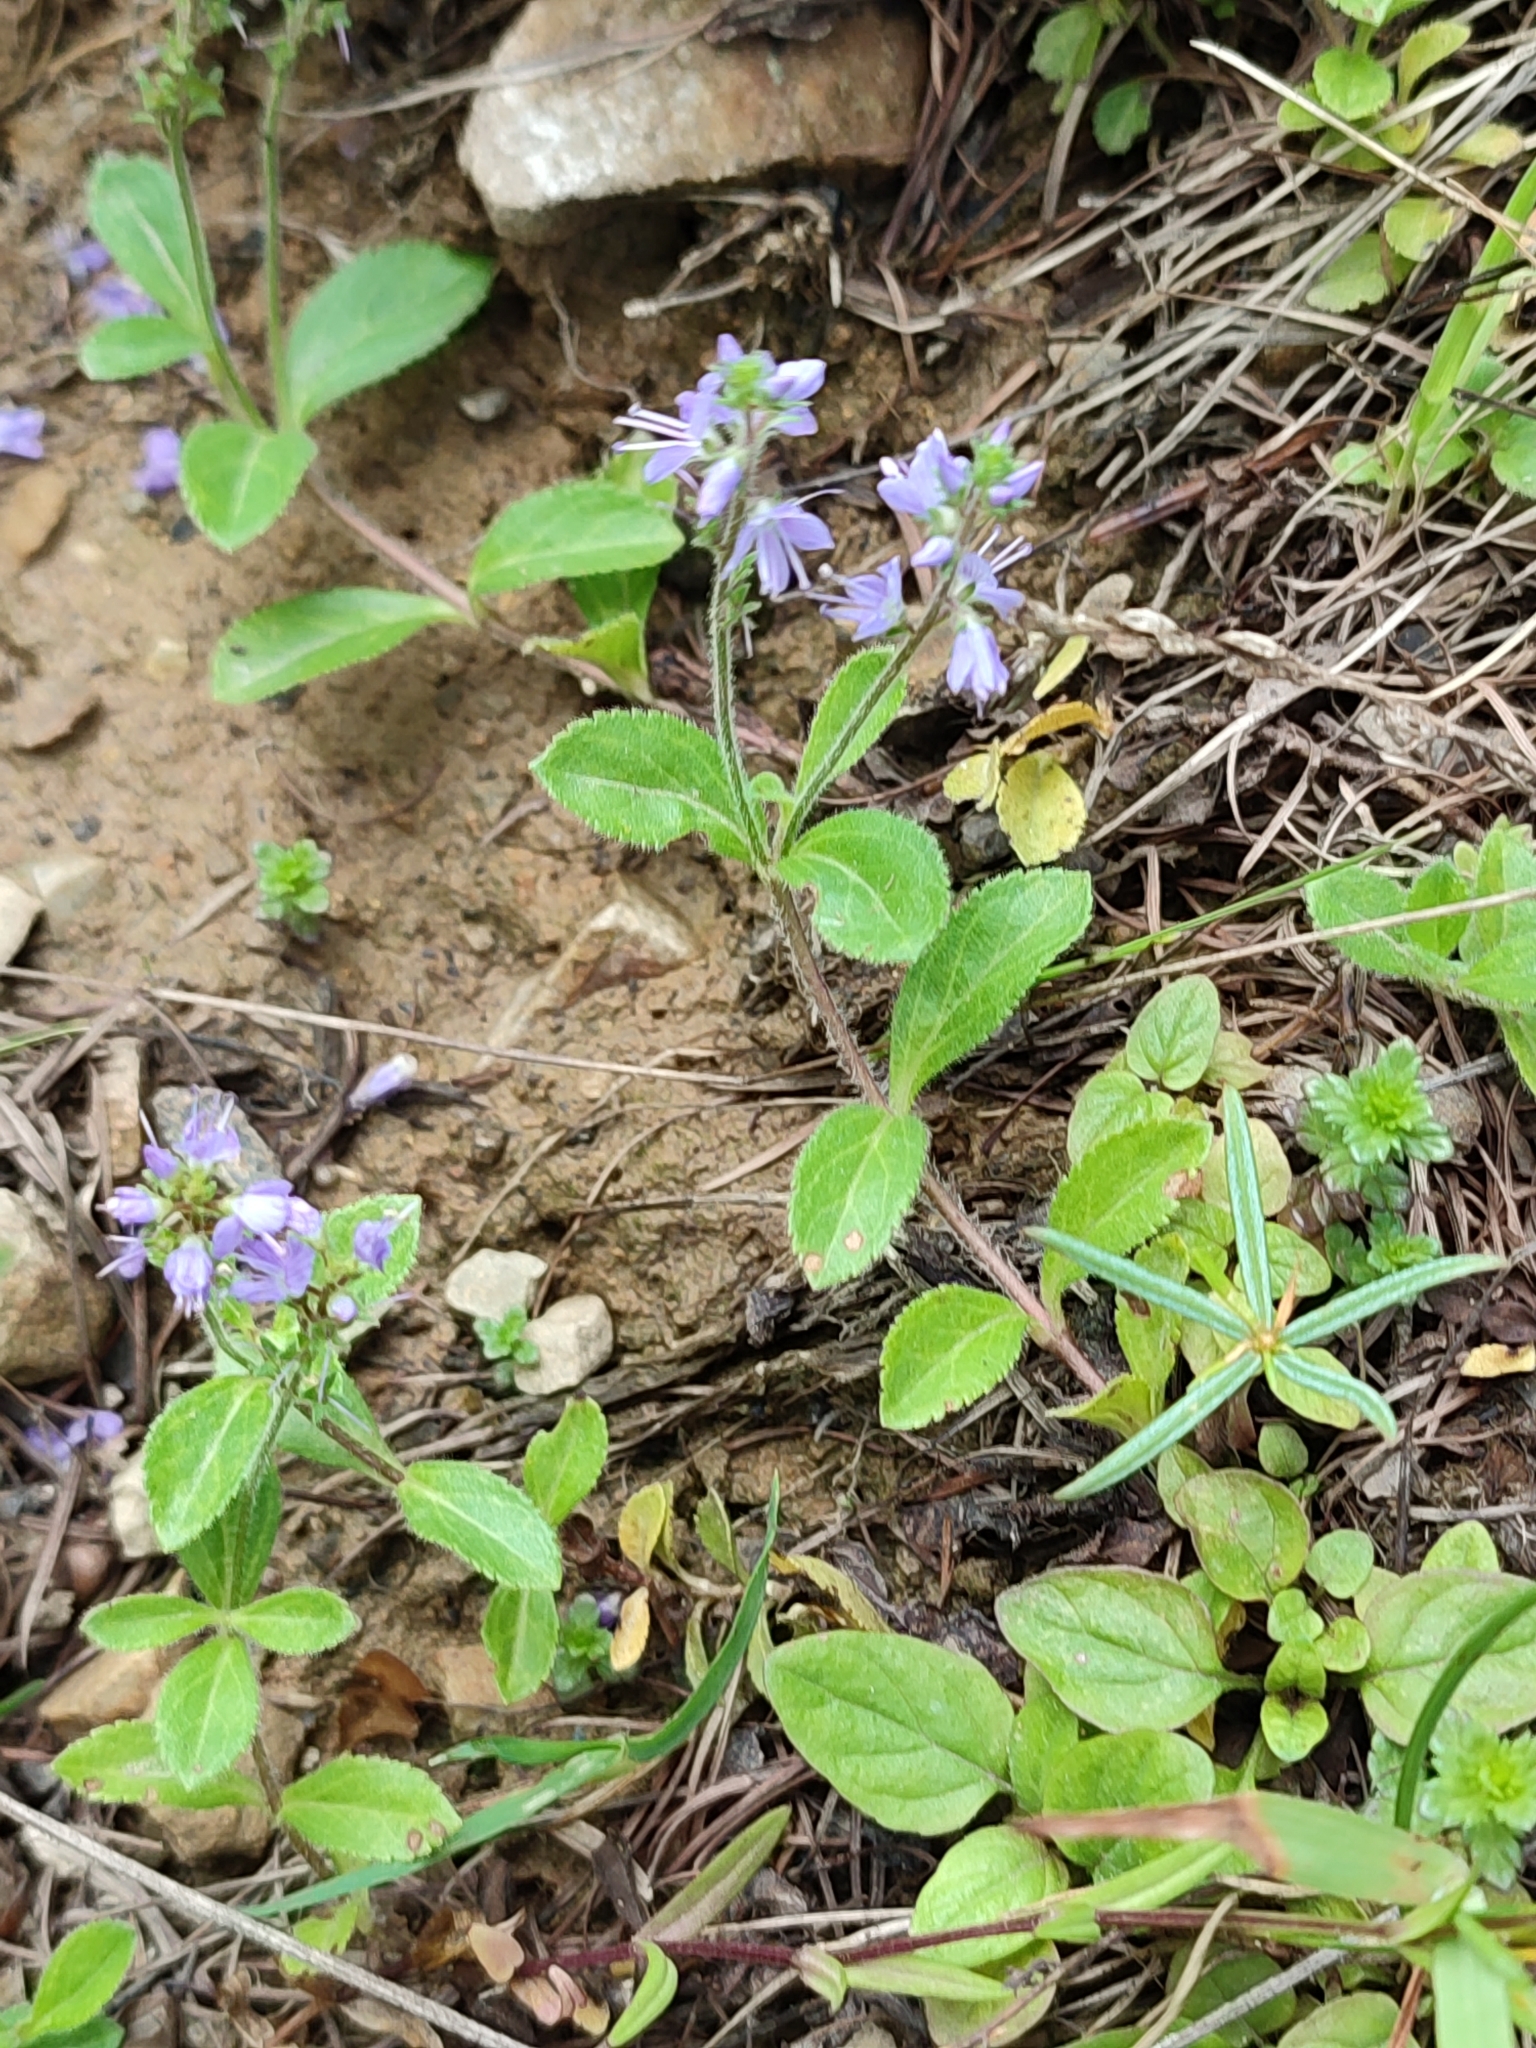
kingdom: Plantae
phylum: Tracheophyta
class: Magnoliopsida
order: Lamiales
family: Plantaginaceae
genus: Veronica
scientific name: Veronica officinalis
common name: Common speedwell
